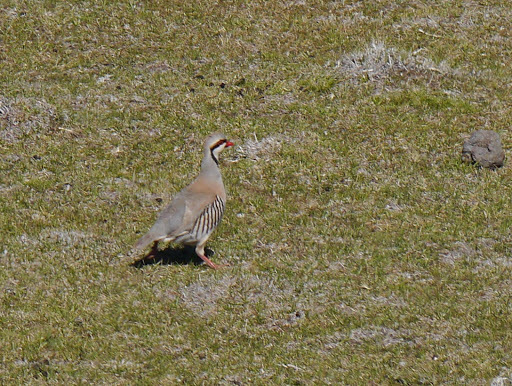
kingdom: Animalia
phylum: Chordata
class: Aves
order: Galliformes
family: Phasianidae
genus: Alectoris
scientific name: Alectoris chukar
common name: Chukar
